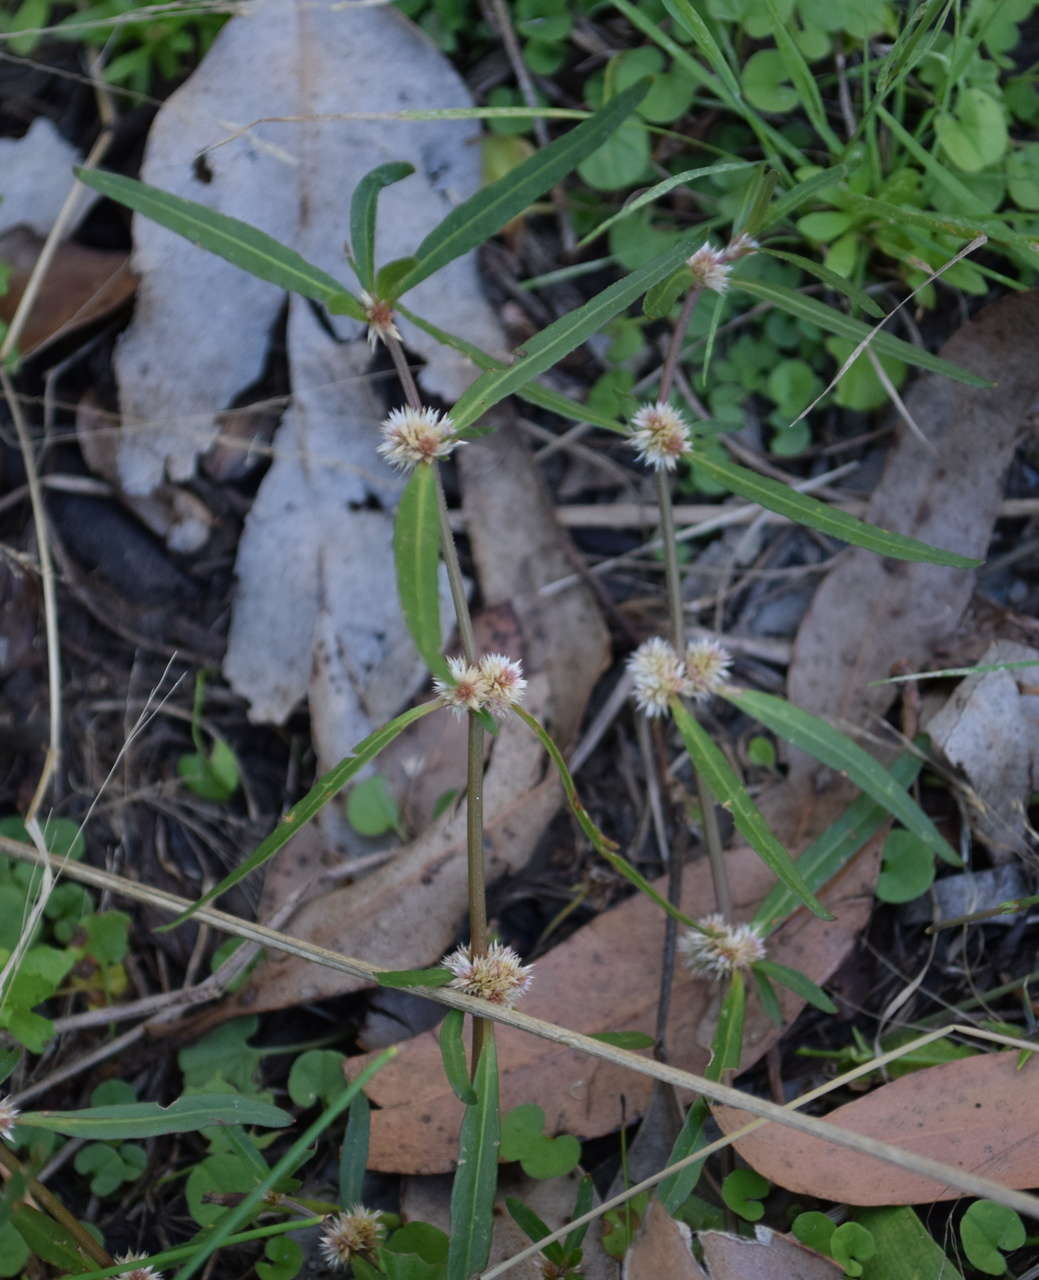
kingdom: Plantae
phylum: Tracheophyta
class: Magnoliopsida
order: Caryophyllales
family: Amaranthaceae
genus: Alternanthera
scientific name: Alternanthera denticulata
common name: Lesser joyweed
